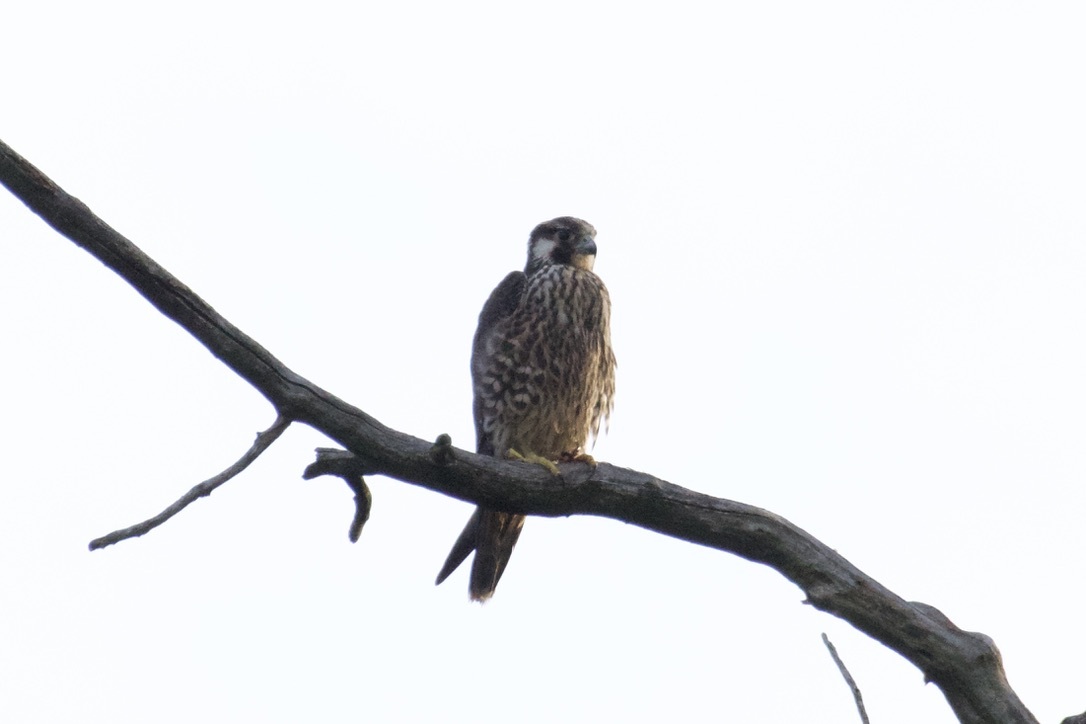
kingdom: Animalia
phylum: Chordata
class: Aves
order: Falconiformes
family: Falconidae
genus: Falco
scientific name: Falco peregrinus
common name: Peregrine falcon
